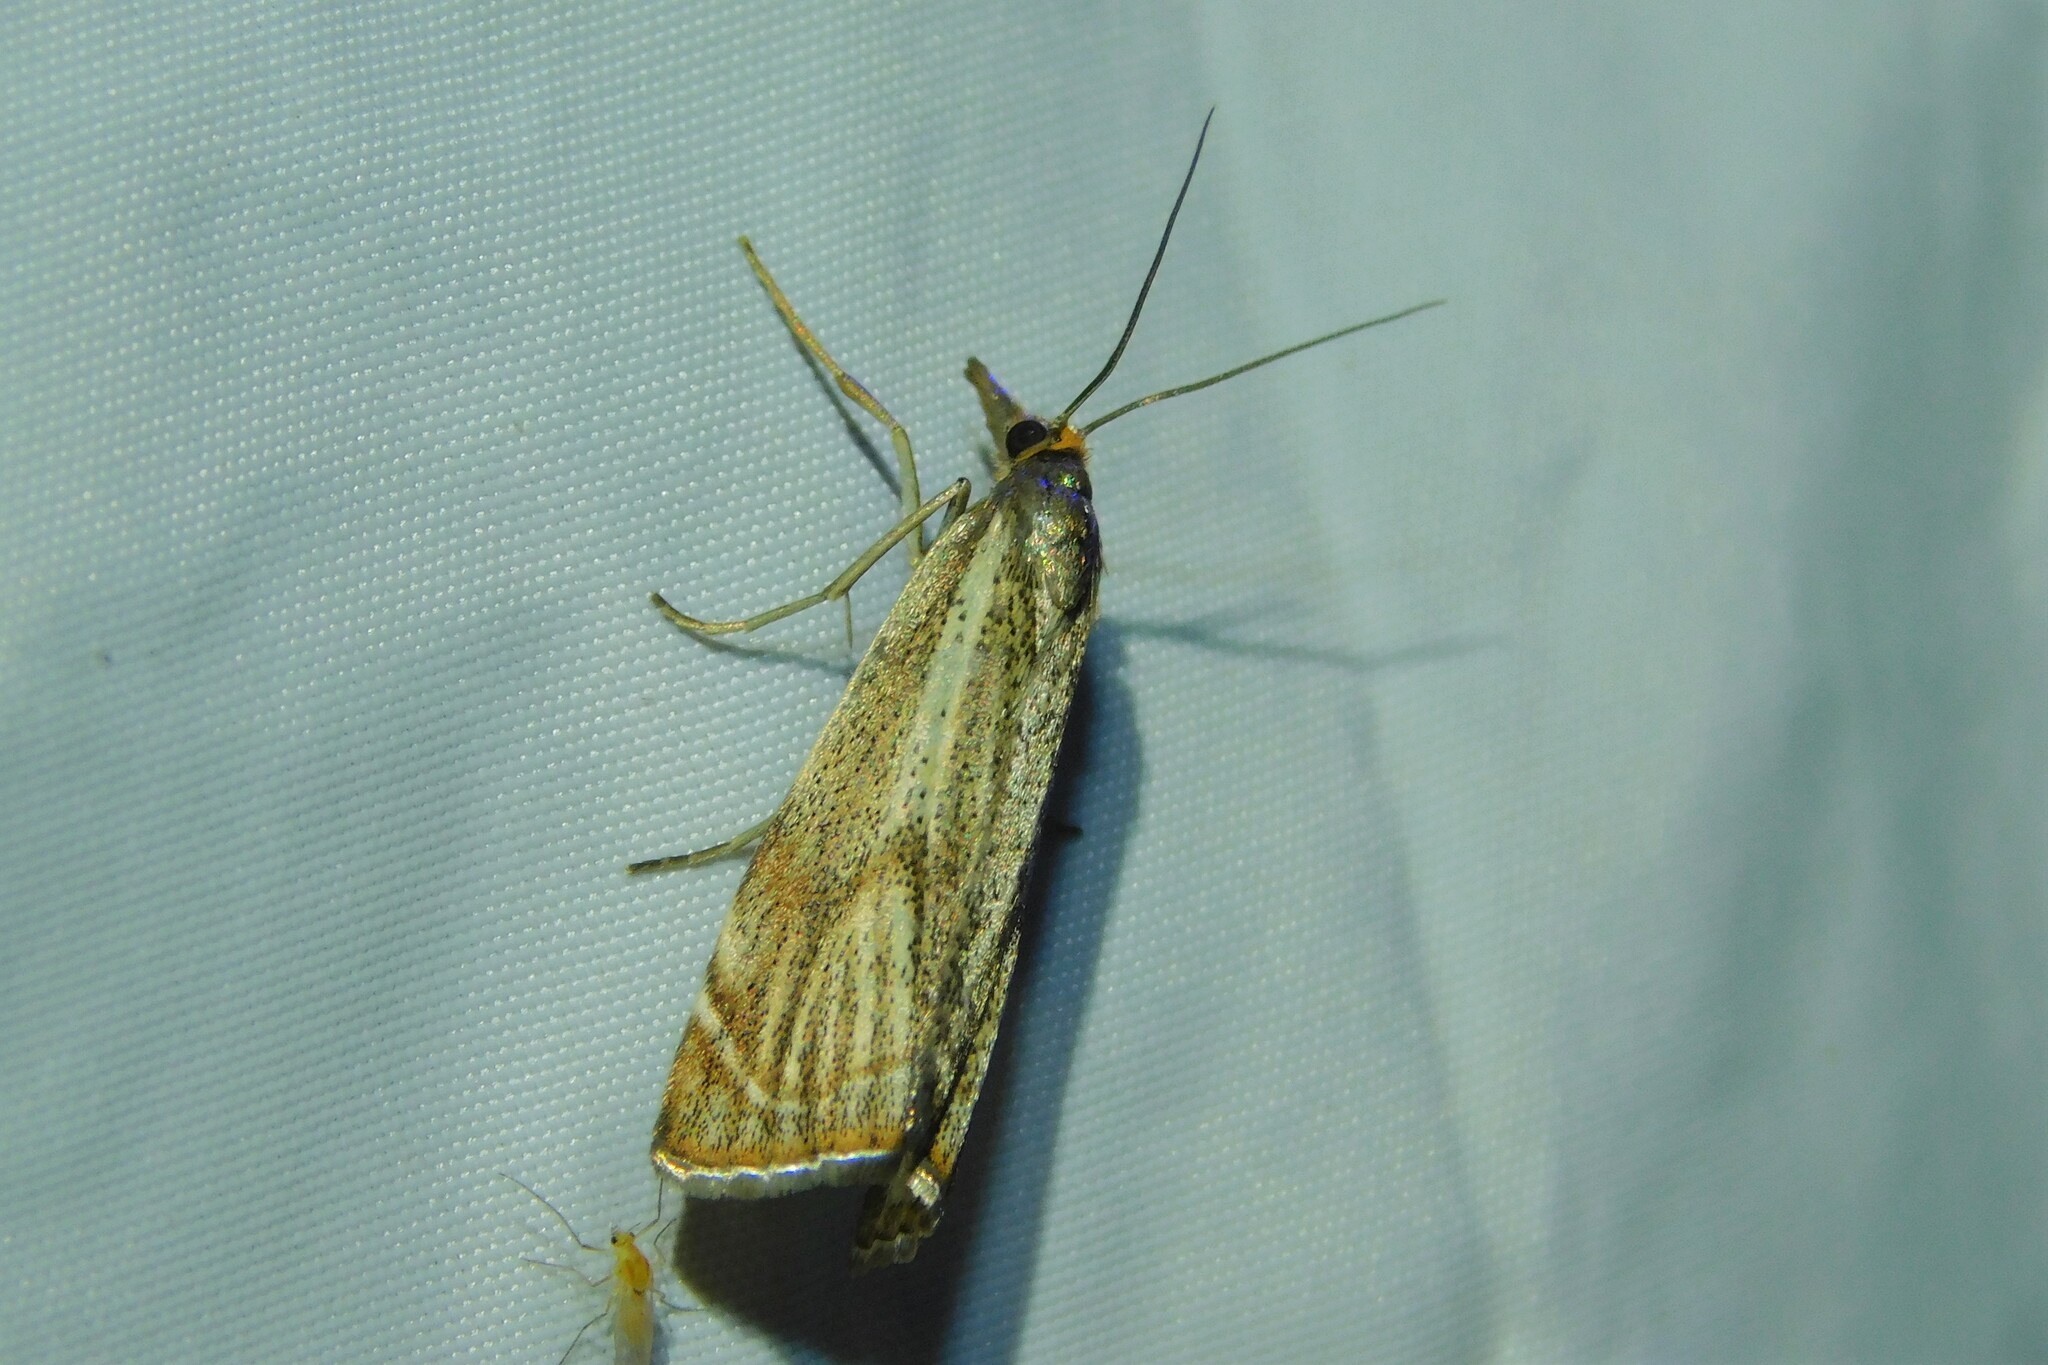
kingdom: Animalia
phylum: Arthropoda
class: Insecta
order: Lepidoptera
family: Crambidae
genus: Thisanotia
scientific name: Thisanotia chrysonuchella
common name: Powdered grass-veneer
